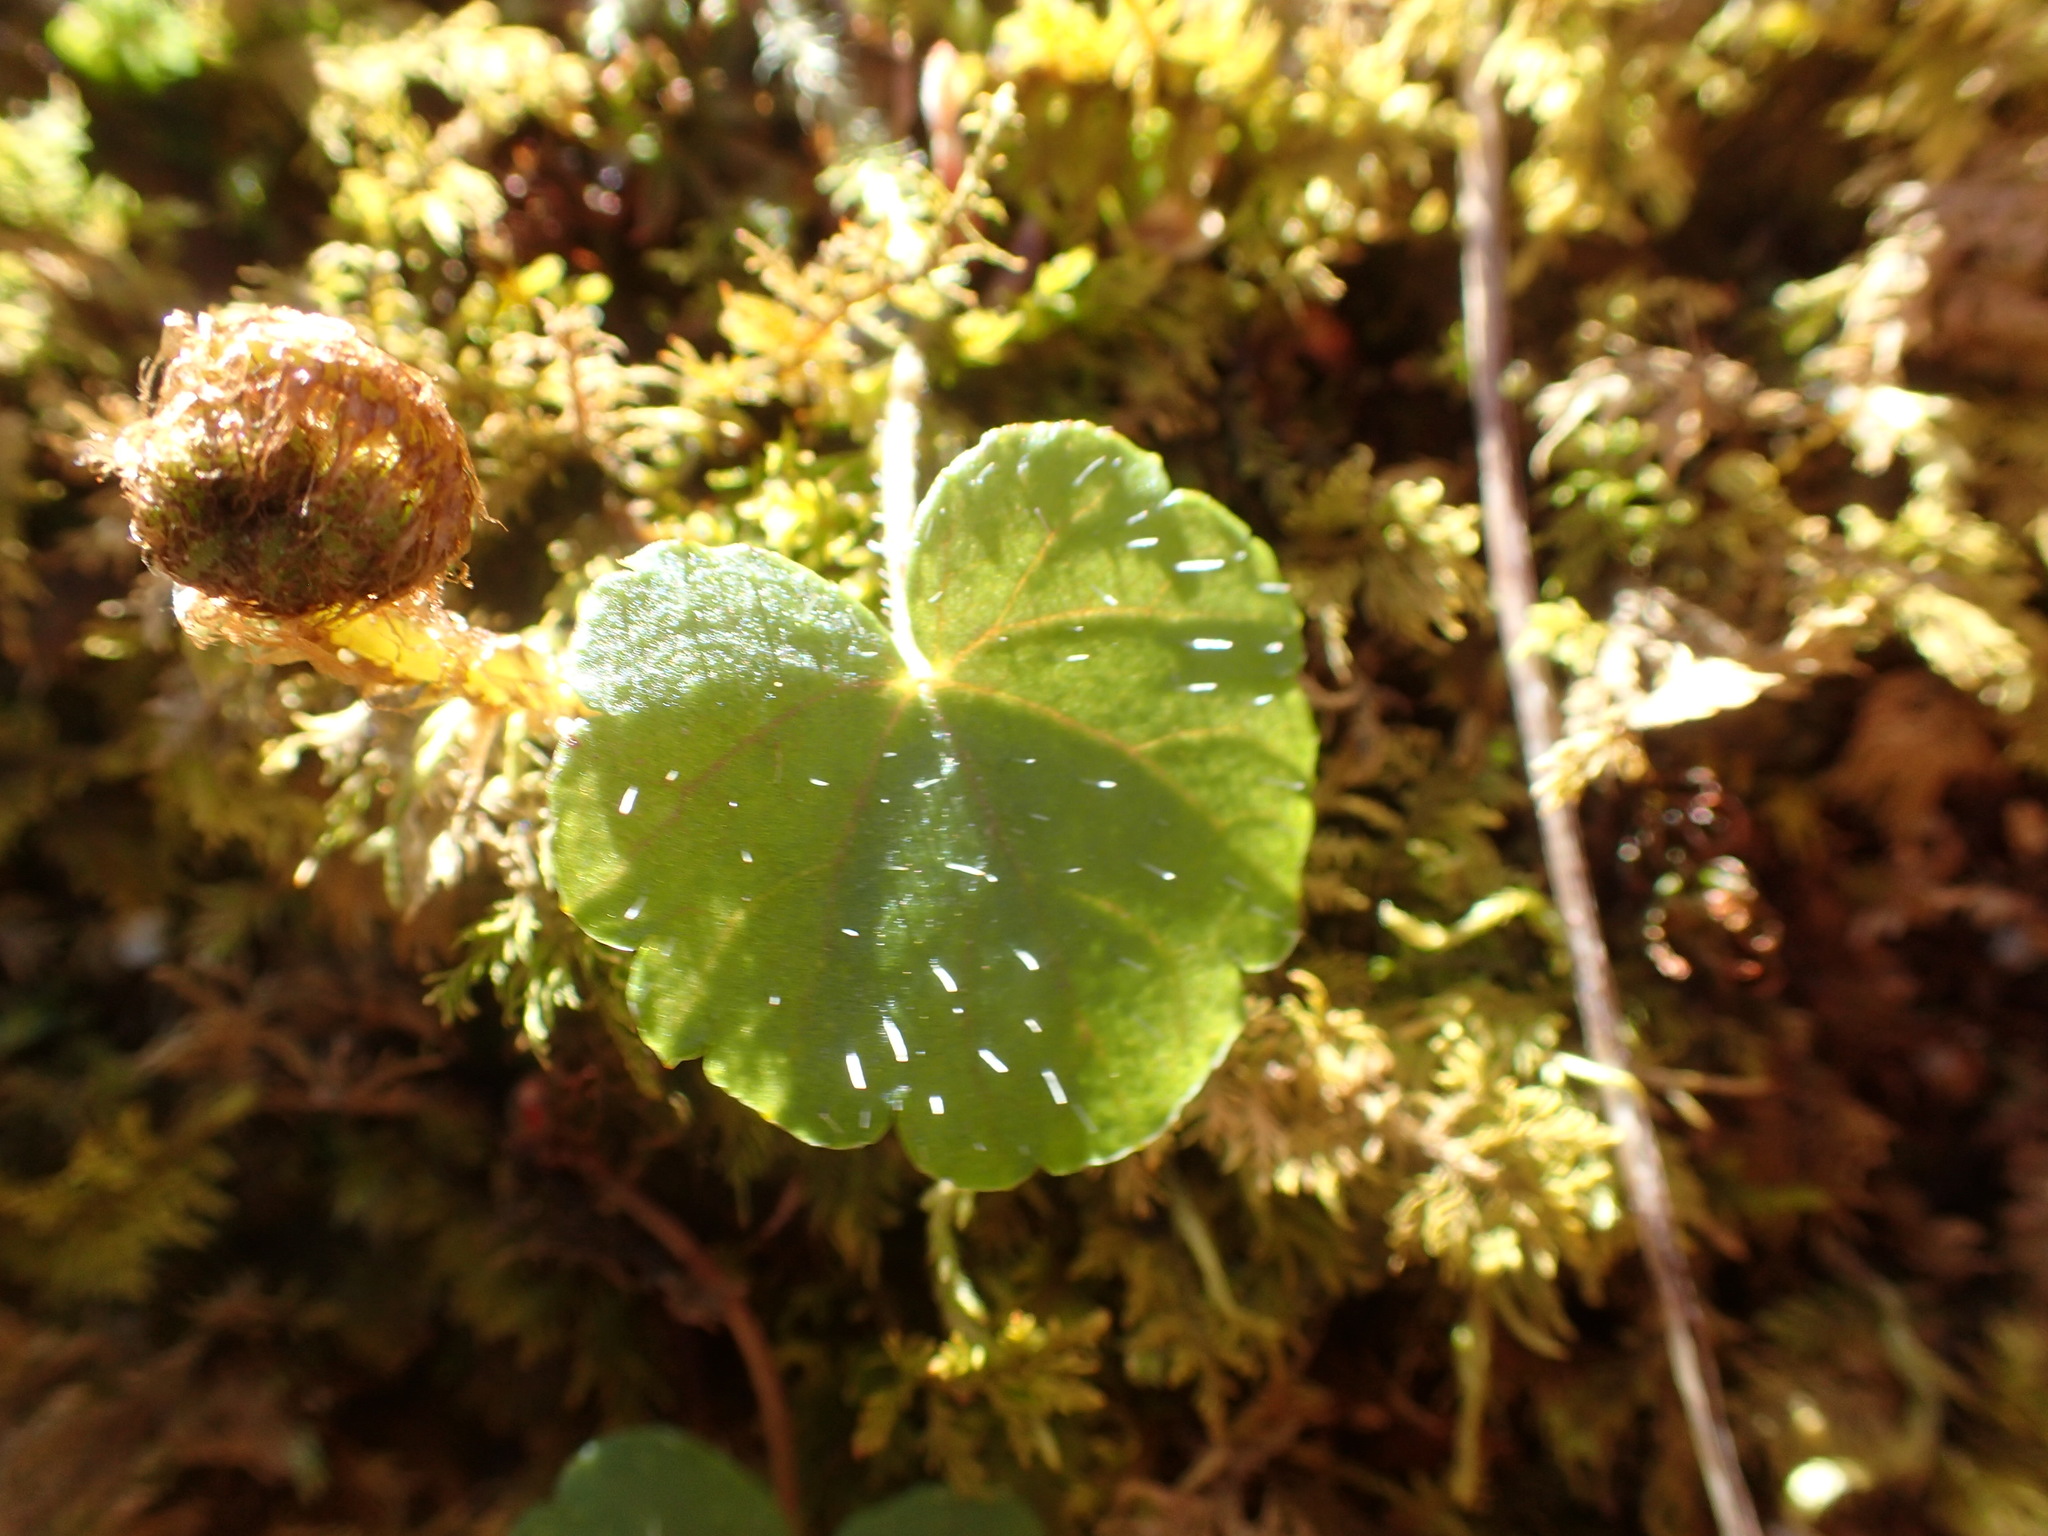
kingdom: Plantae
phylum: Tracheophyta
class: Magnoliopsida
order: Saxifragales
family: Saxifragaceae
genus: Mitella
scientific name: Mitella nuda
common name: Bare-stemmed bishop's-cap
